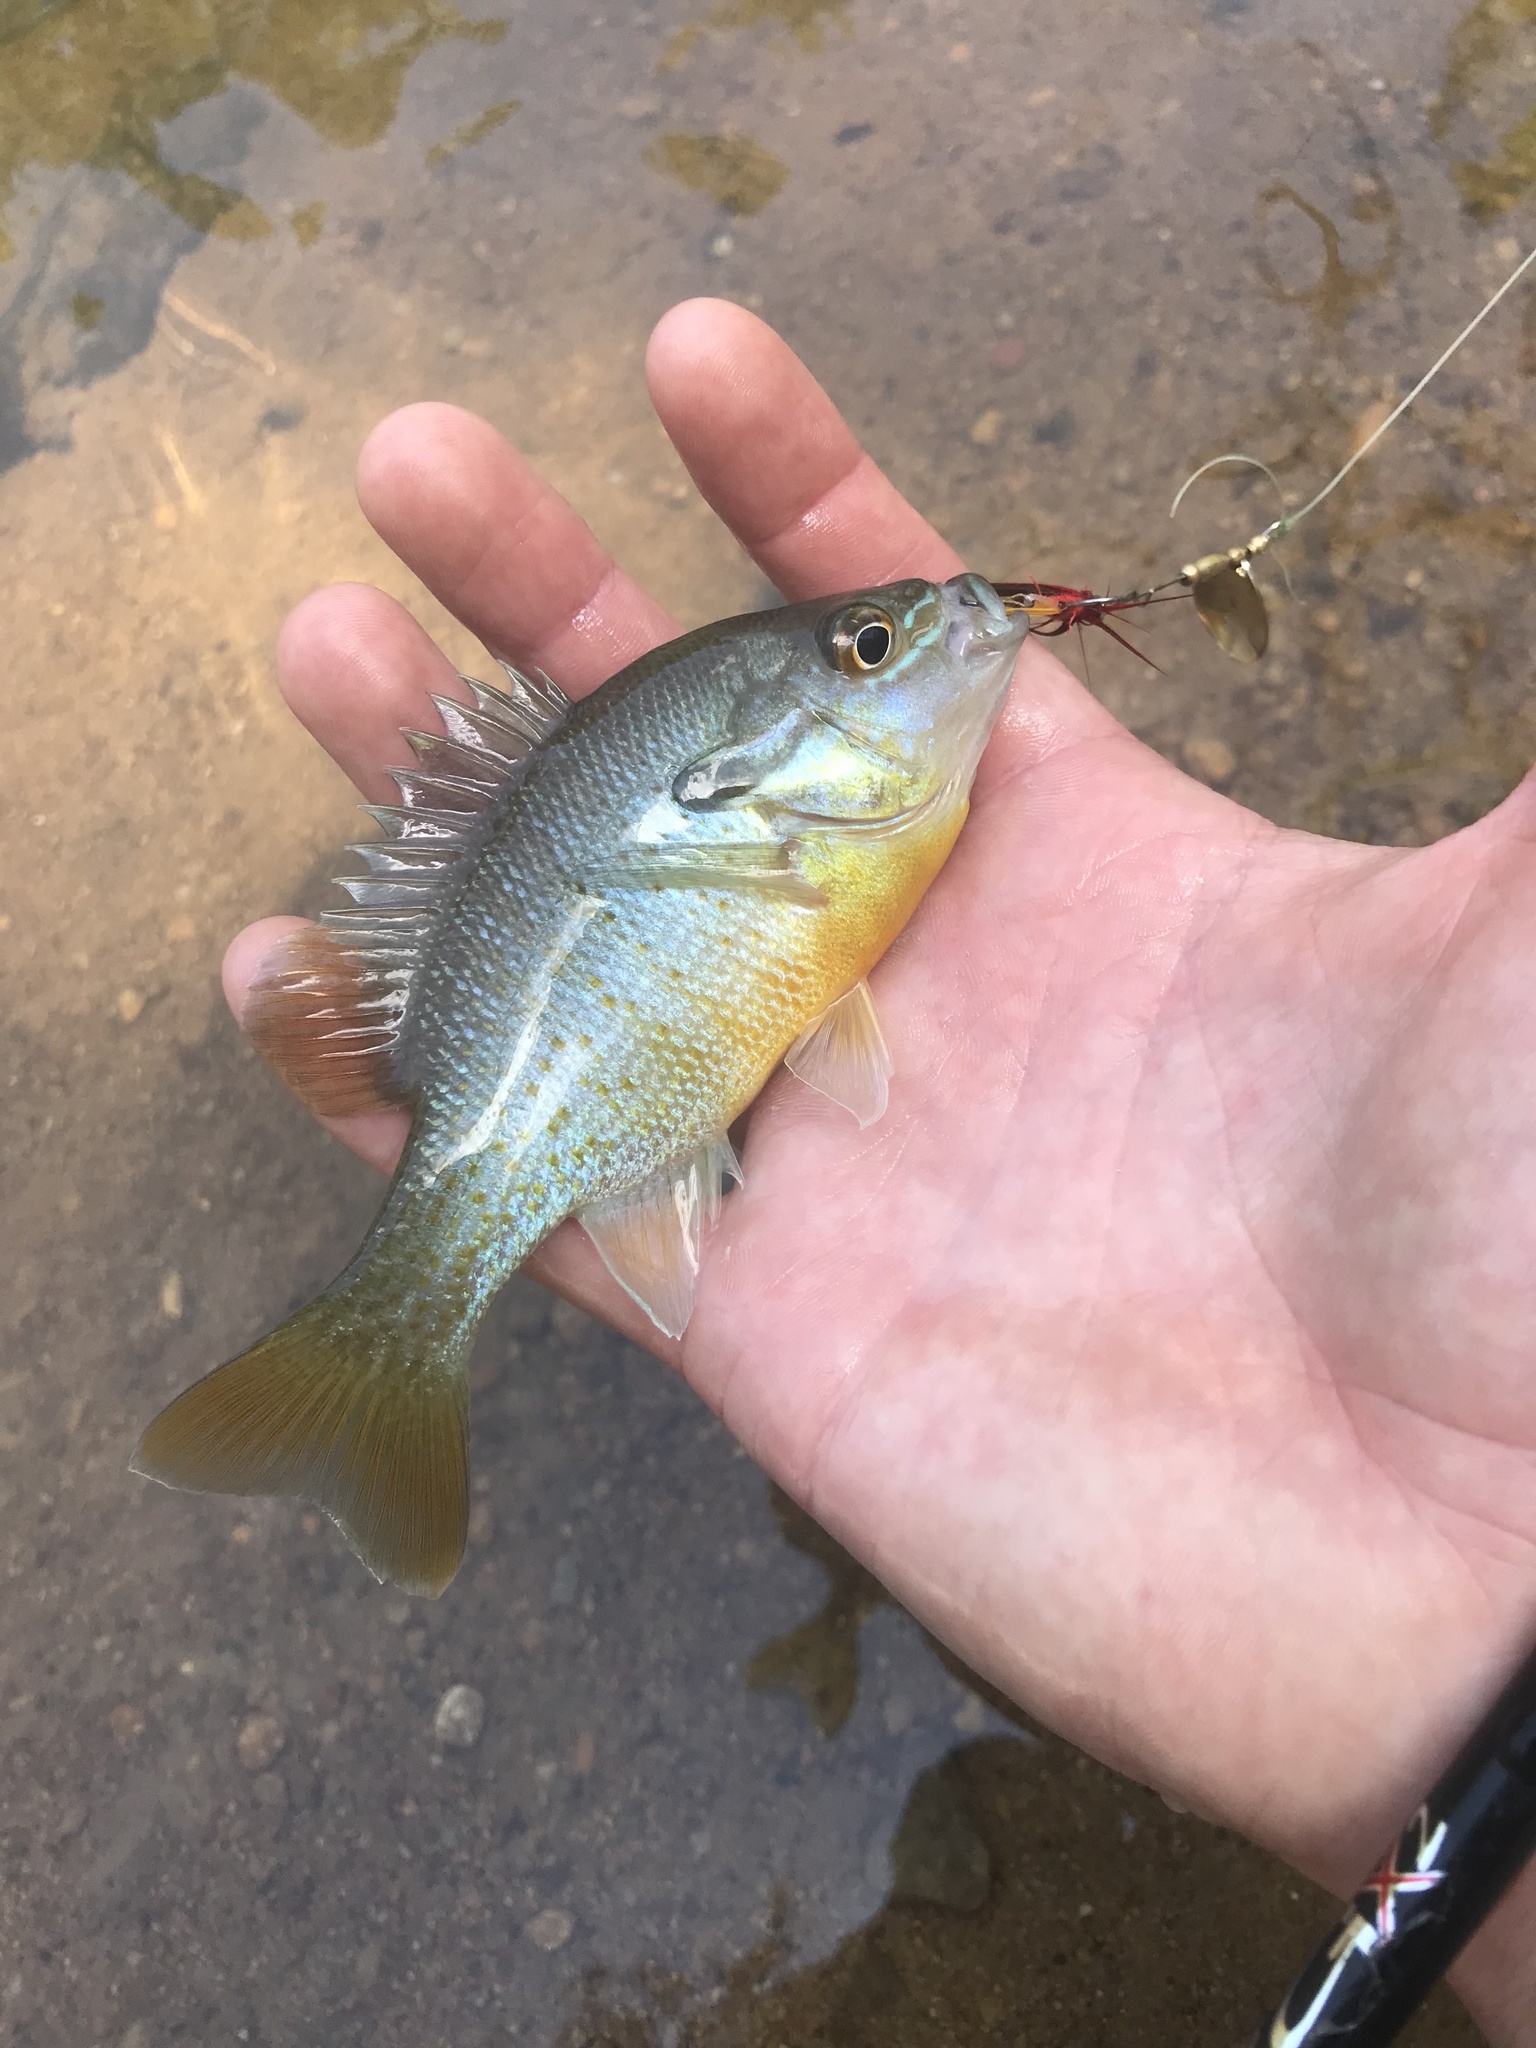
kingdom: Animalia
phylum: Chordata
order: Perciformes
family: Centrarchidae
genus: Lepomis
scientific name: Lepomis auritus
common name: Redbreast sunfish
